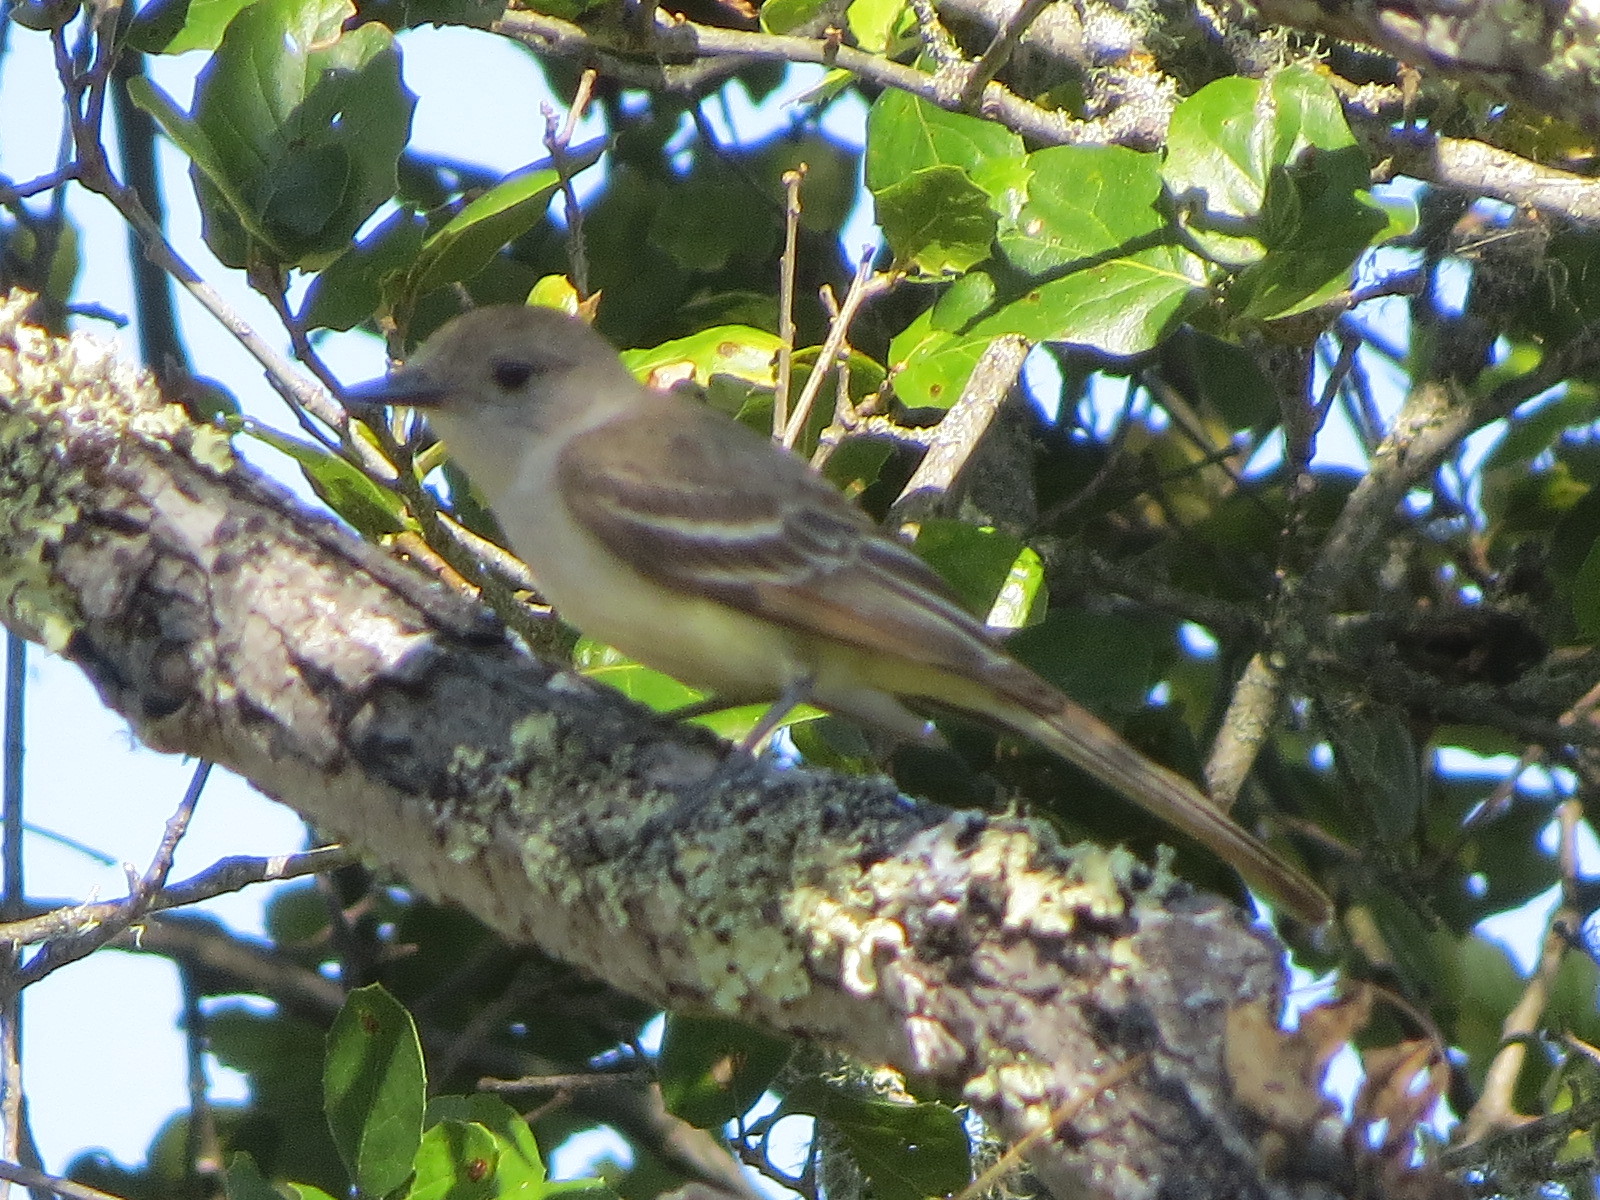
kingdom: Animalia
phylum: Chordata
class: Aves
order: Passeriformes
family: Tyrannidae
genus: Myiarchus
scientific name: Myiarchus cinerascens
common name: Ash-throated flycatcher
